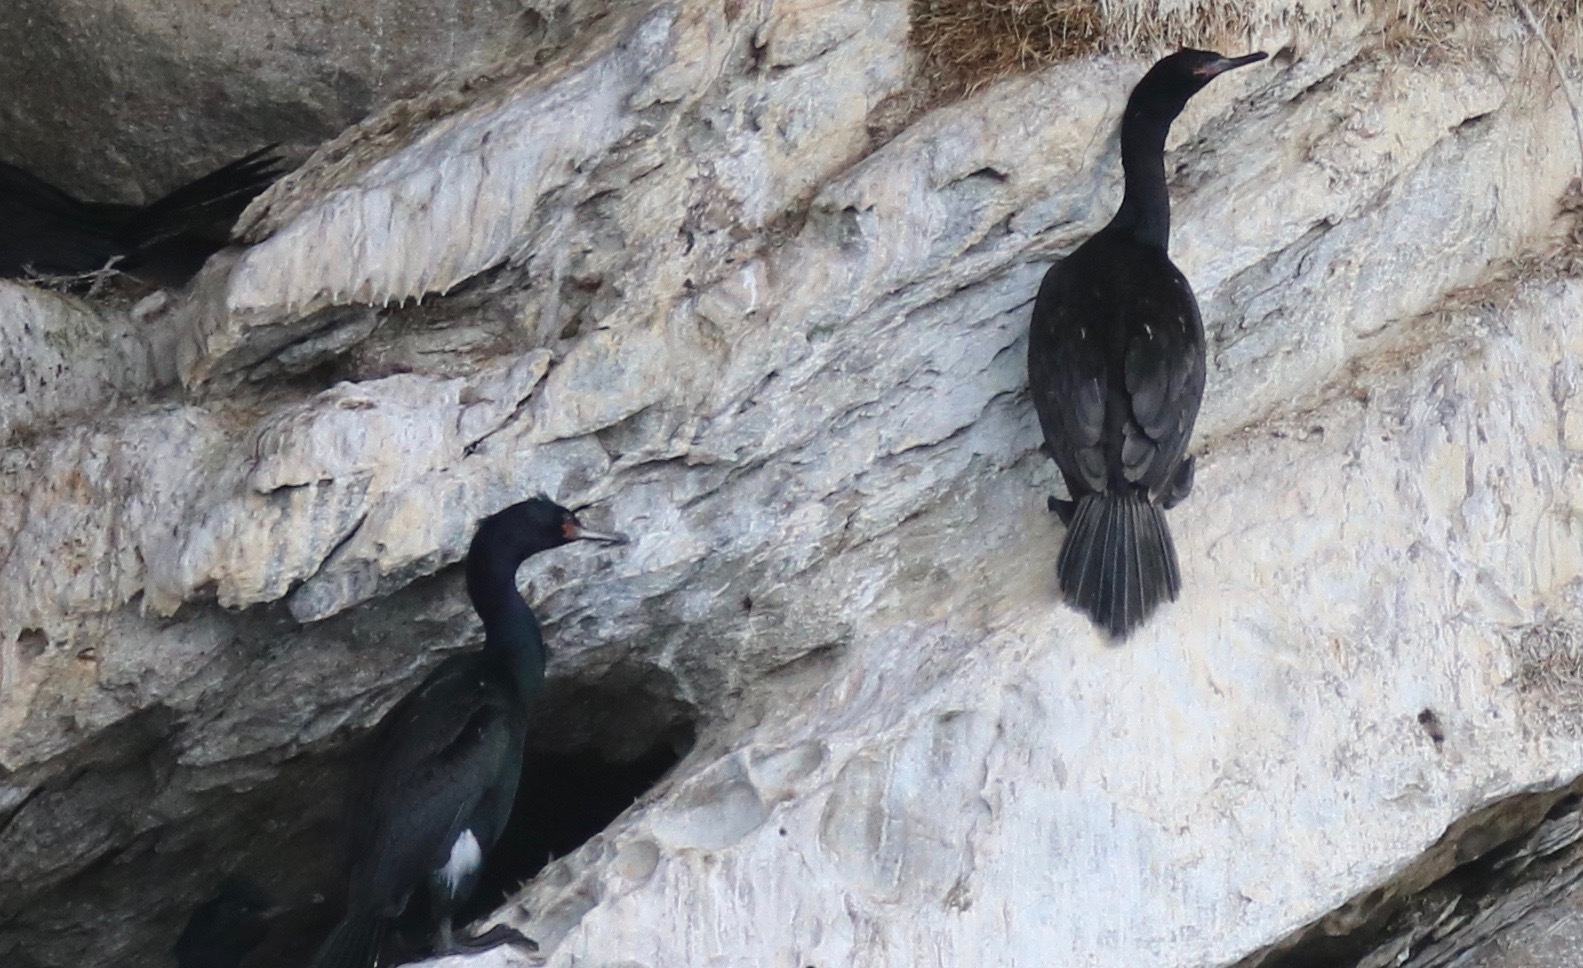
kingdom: Animalia
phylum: Chordata
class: Aves
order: Suliformes
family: Phalacrocoracidae
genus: Phalacrocorax
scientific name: Phalacrocorax pelagicus
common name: Pelagic cormorant
